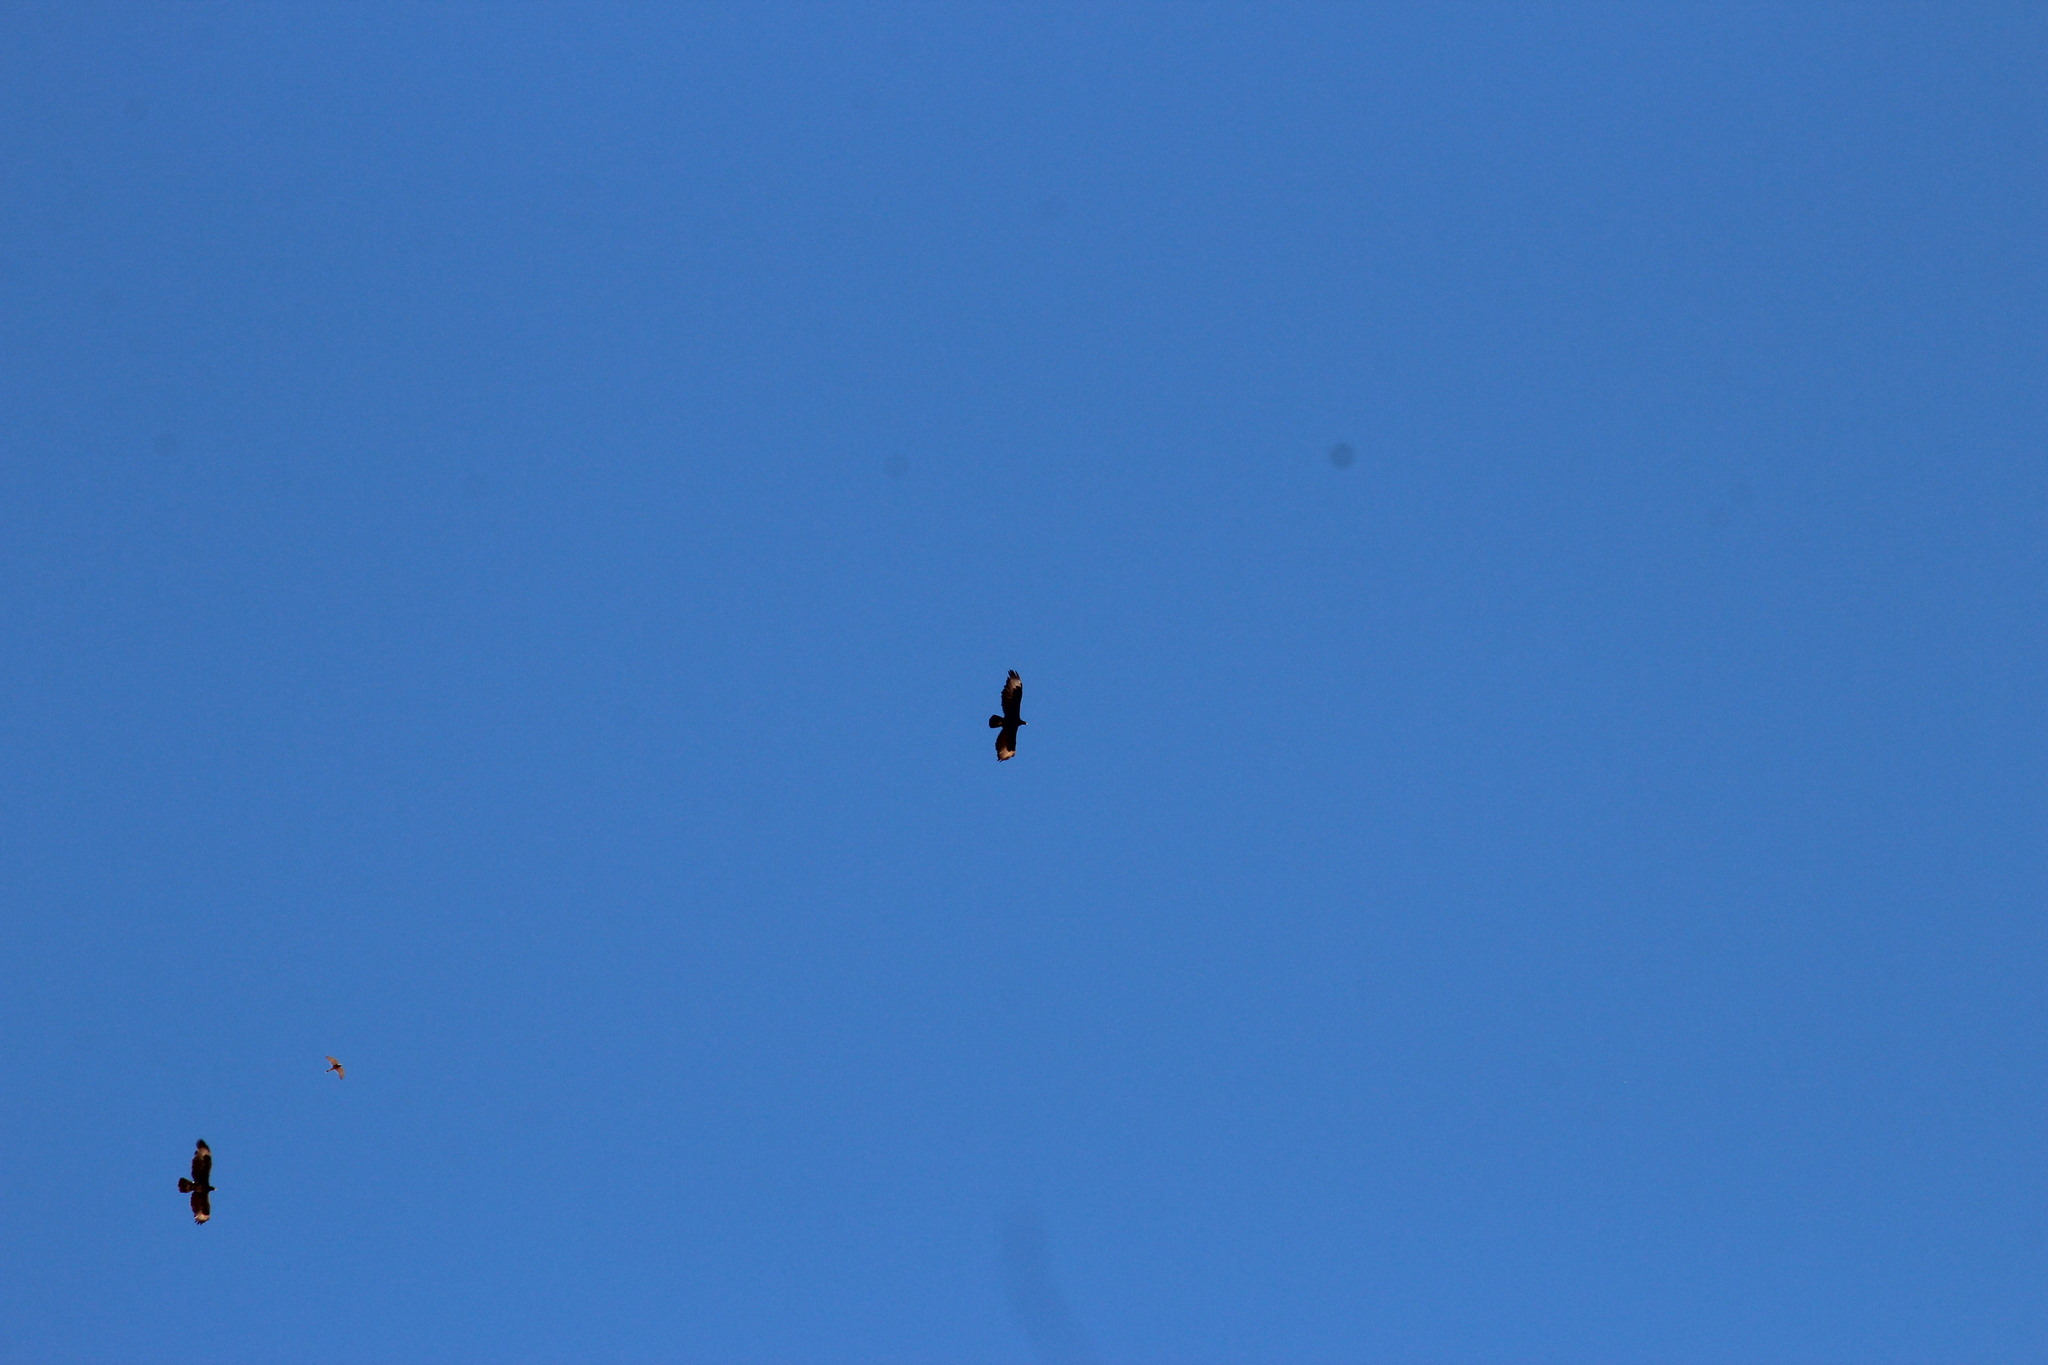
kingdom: Animalia
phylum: Chordata
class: Aves
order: Accipitriformes
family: Accipitridae
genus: Aquila
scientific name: Aquila verreauxii
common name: Verreaux's eagle
